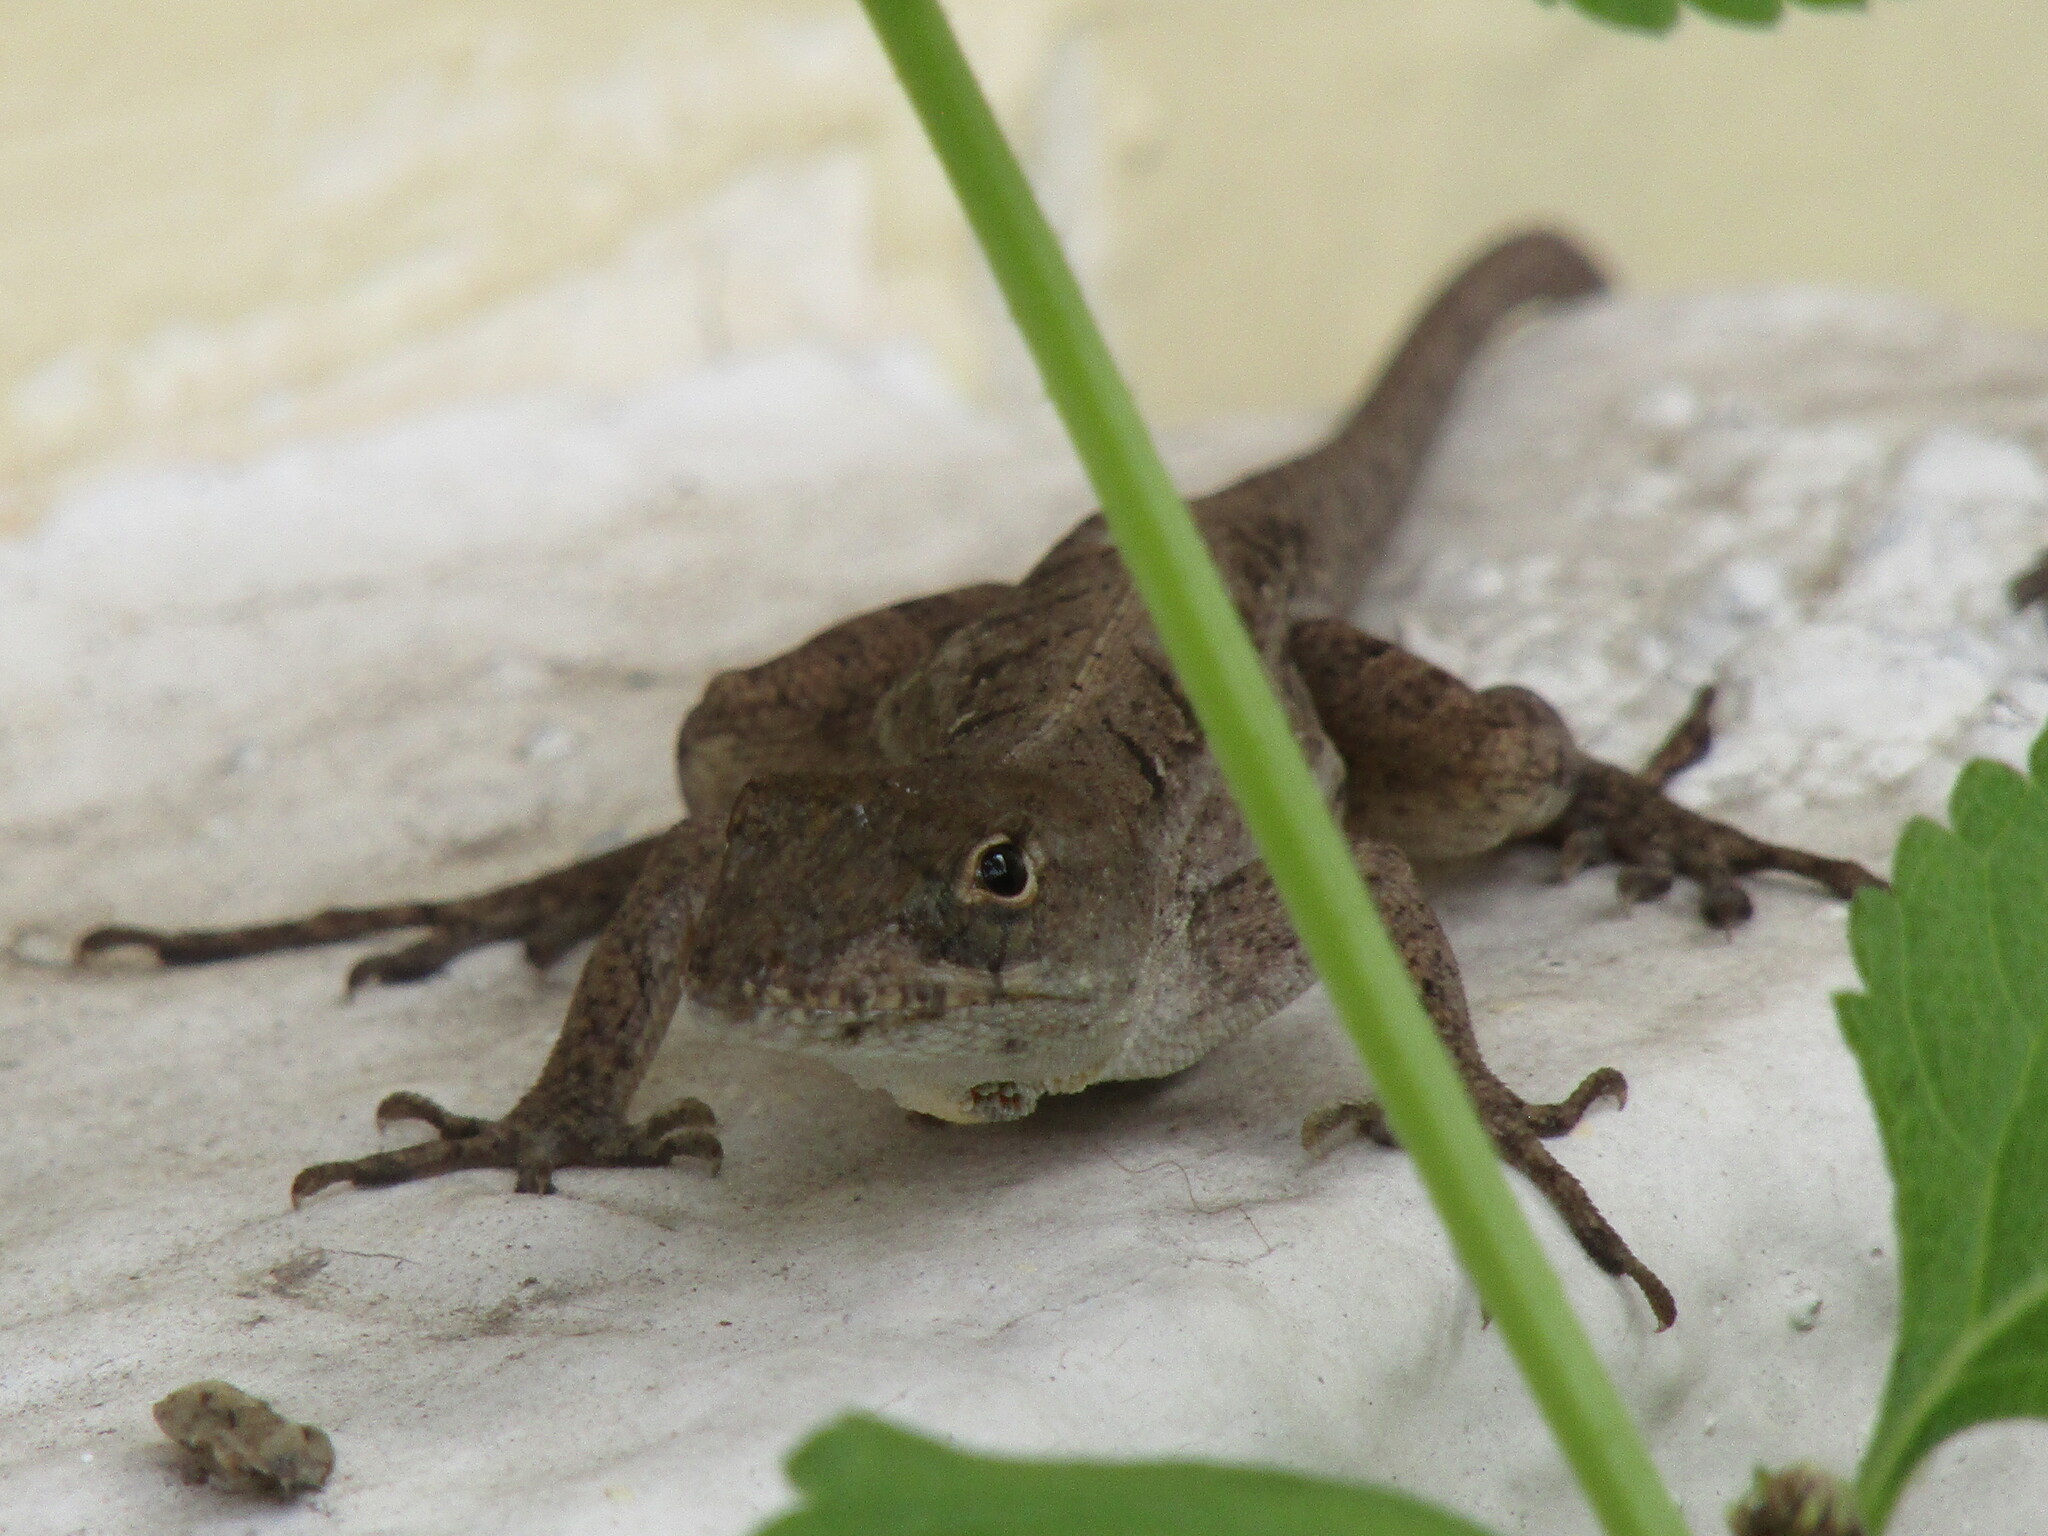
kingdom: Animalia
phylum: Chordata
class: Squamata
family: Dactyloidae
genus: Anolis
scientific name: Anolis sagrei
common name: Brown anole
